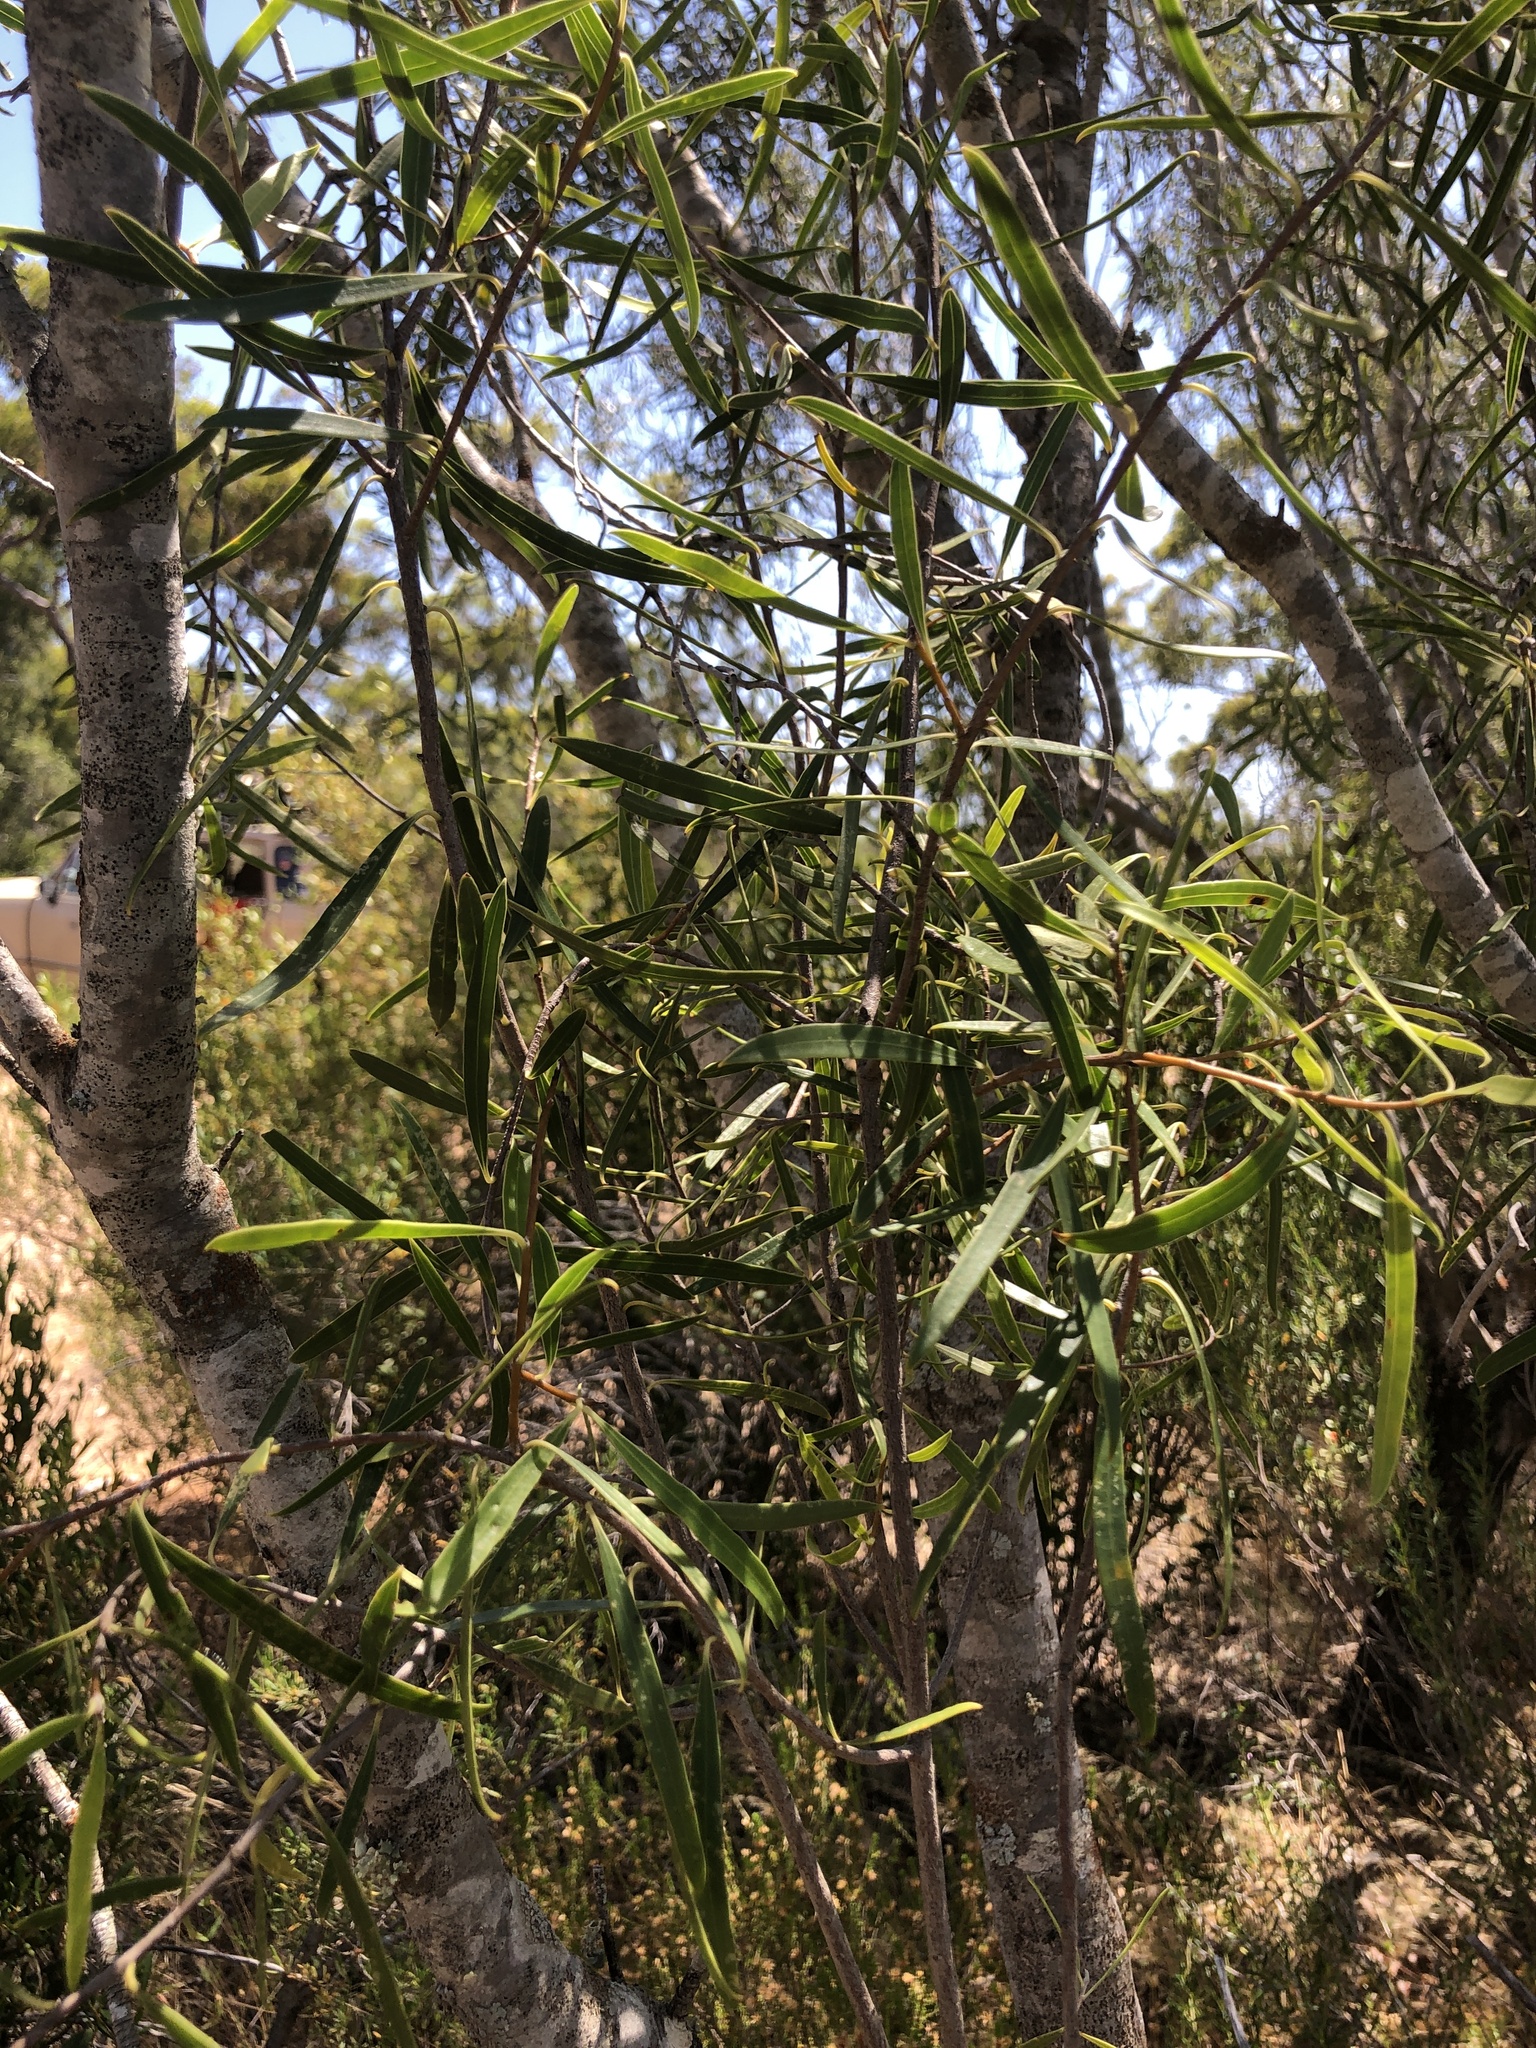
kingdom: Plantae
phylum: Tracheophyta
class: Magnoliopsida
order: Apiales
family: Pittosporaceae
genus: Pittosporum
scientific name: Pittosporum angustifolium
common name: Weeping pittosporum
